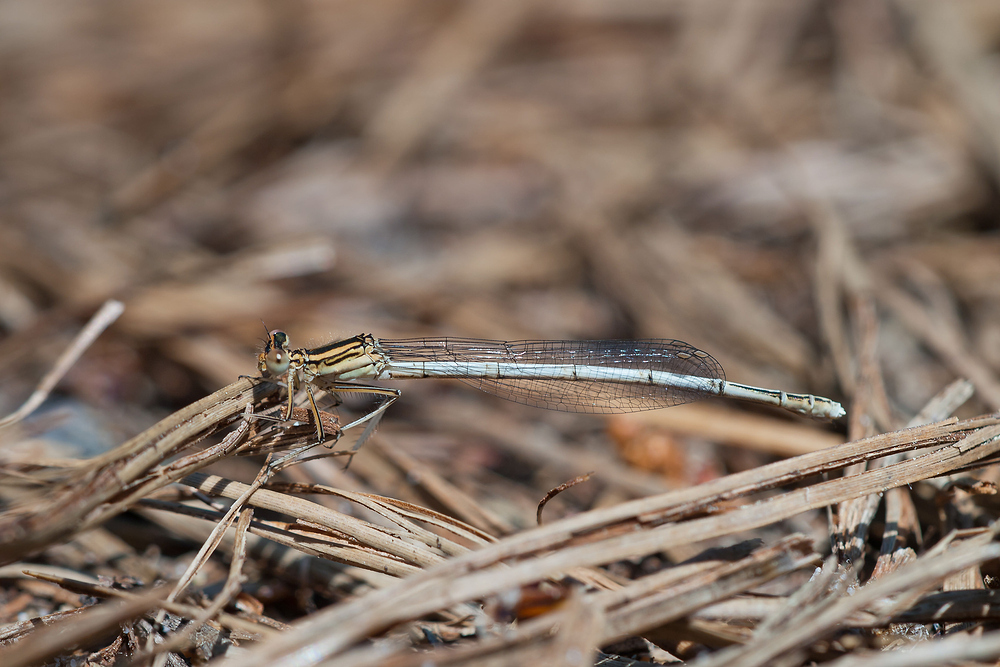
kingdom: Animalia
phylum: Arthropoda
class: Insecta
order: Odonata
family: Platycnemididae
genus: Platycnemis
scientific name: Platycnemis latipes
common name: White featherleg
